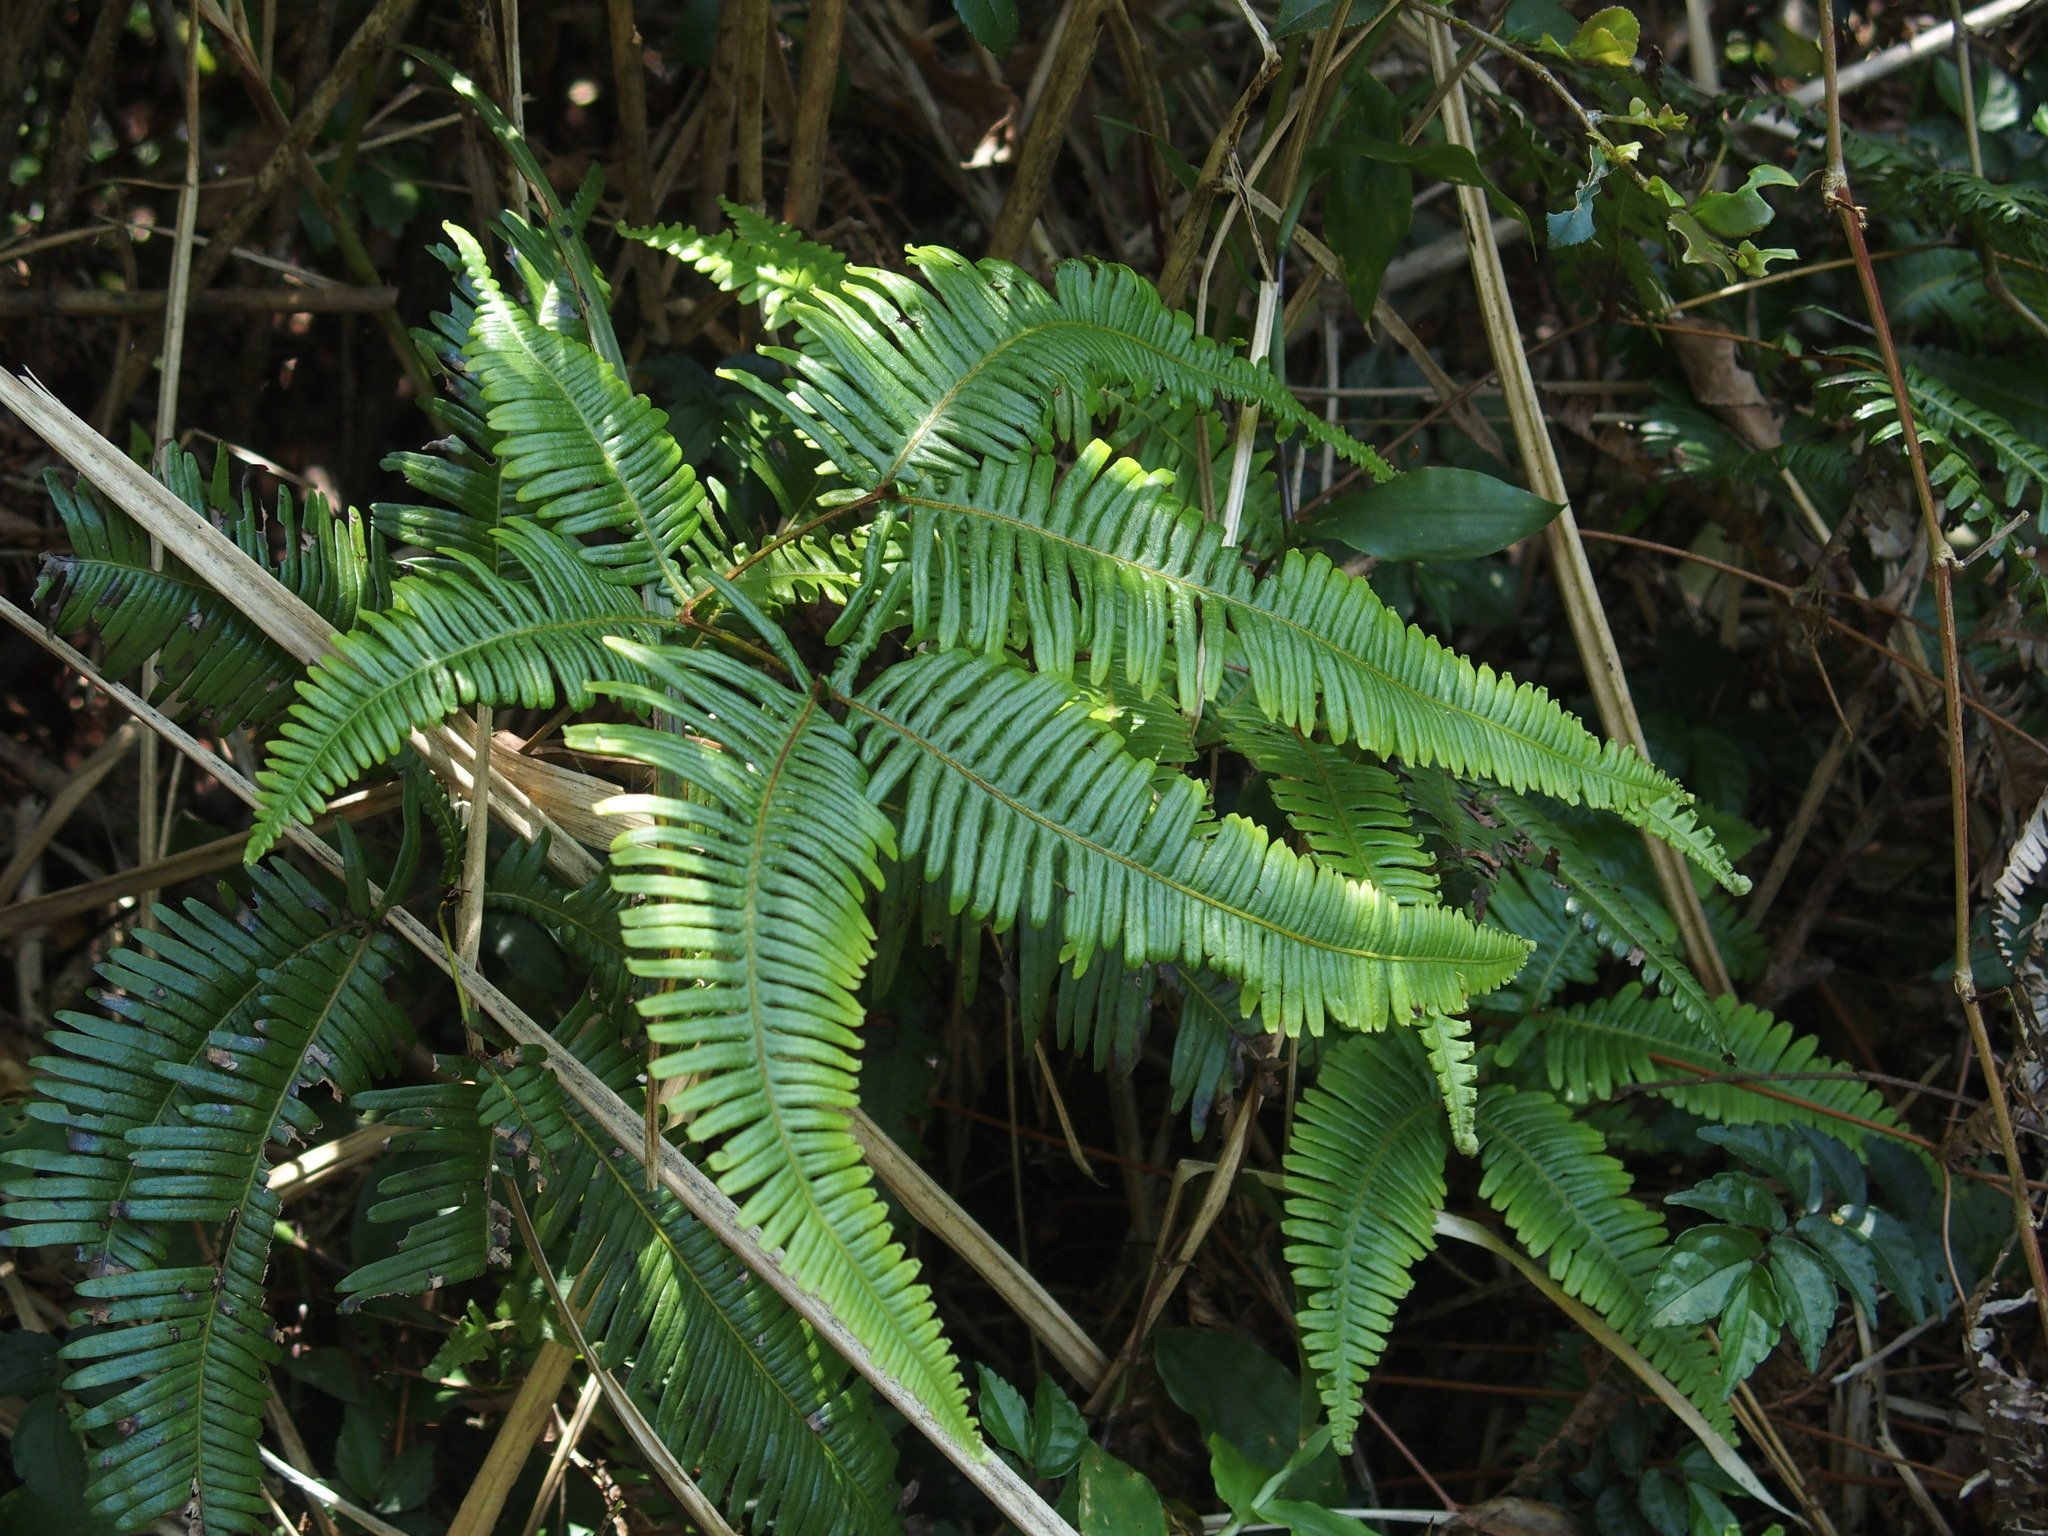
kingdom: Plantae
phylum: Tracheophyta
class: Polypodiopsida
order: Gleicheniales
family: Gleicheniaceae
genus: Dicranopteris
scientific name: Dicranopteris linearis
